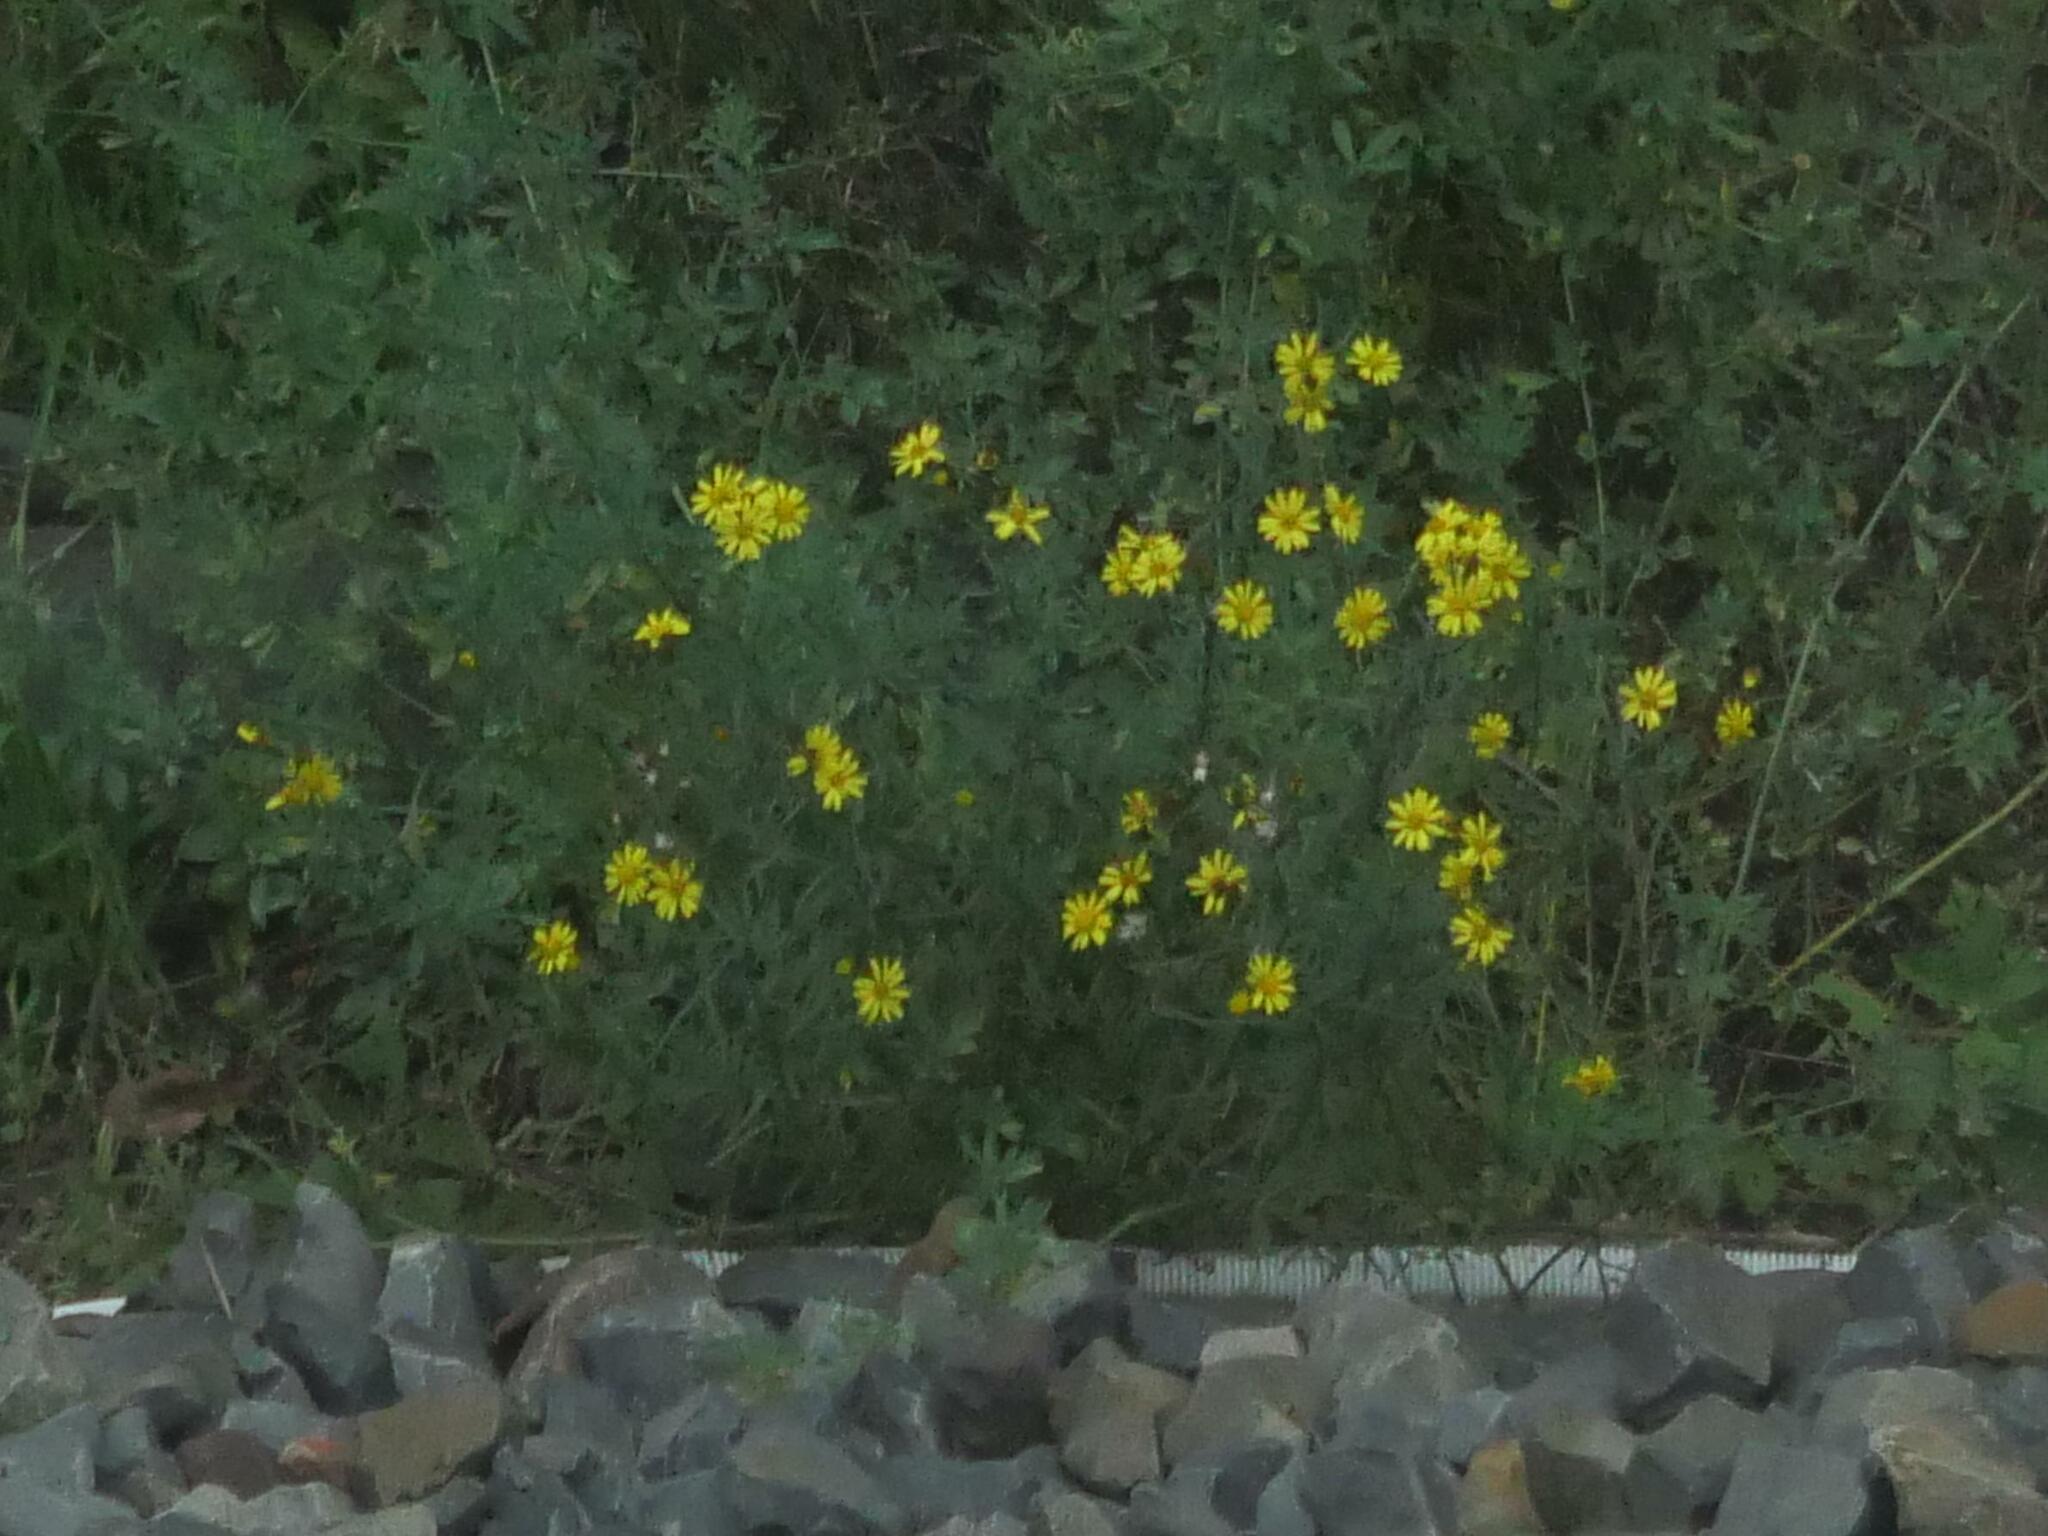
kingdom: Plantae
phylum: Tracheophyta
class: Magnoliopsida
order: Asterales
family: Asteraceae
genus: Senecio
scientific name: Senecio inaequidens
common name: Narrow-leaved ragwort
